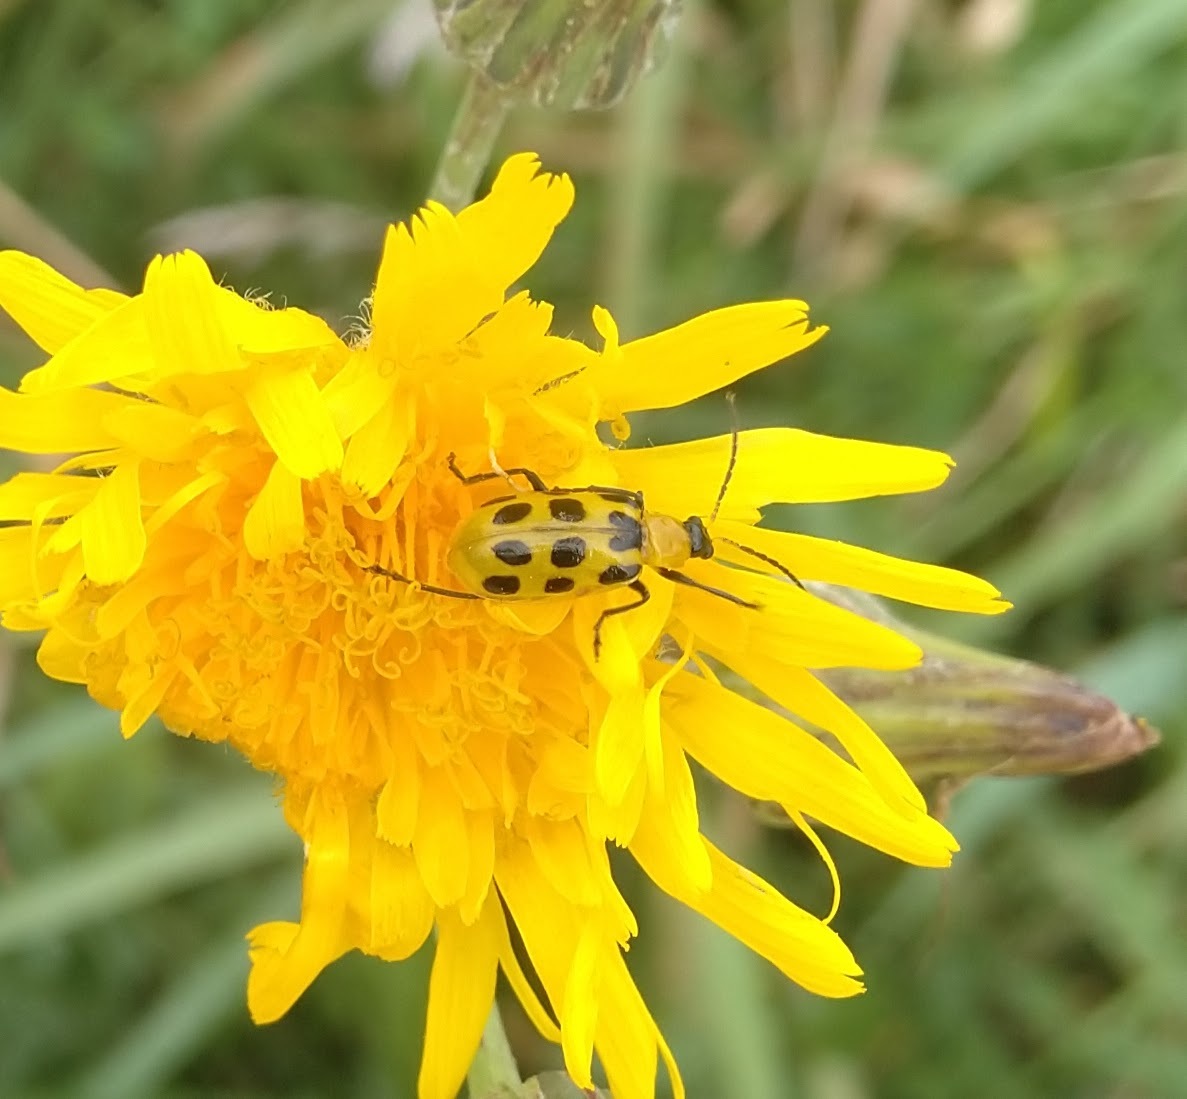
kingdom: Animalia
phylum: Arthropoda
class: Insecta
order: Coleoptera
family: Chrysomelidae
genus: Diabrotica
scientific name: Diabrotica undecimpunctata
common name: Spotted cucumber beetle
